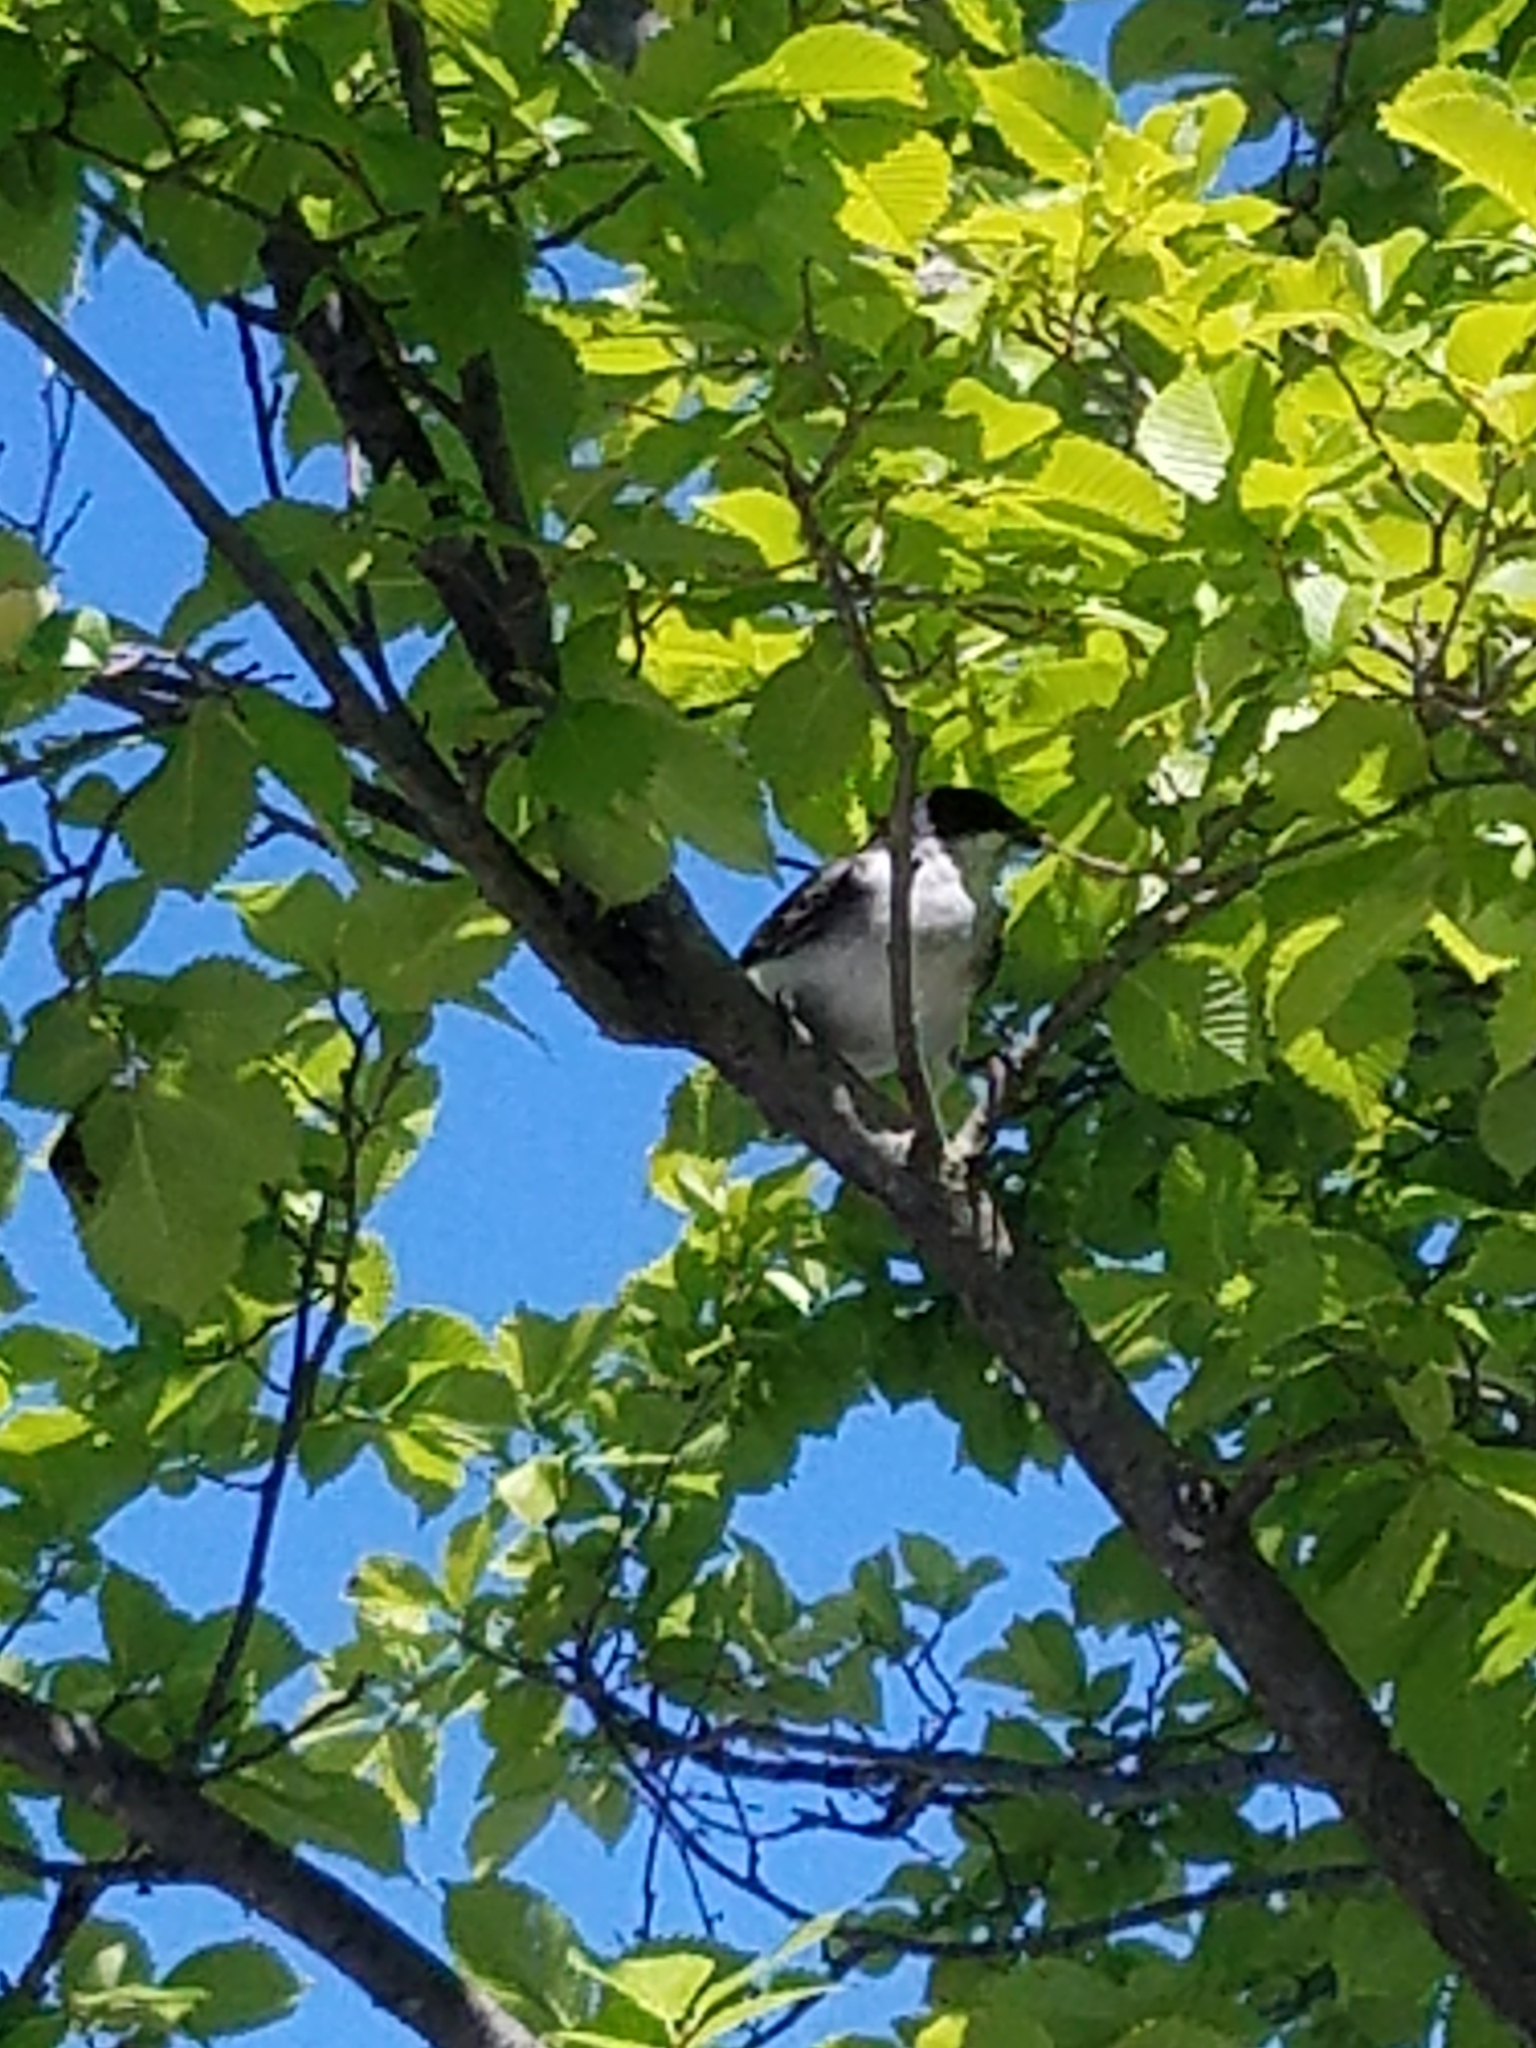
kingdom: Animalia
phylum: Chordata
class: Aves
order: Passeriformes
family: Tyrannidae
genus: Tyrannus
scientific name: Tyrannus tyrannus
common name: Eastern kingbird
